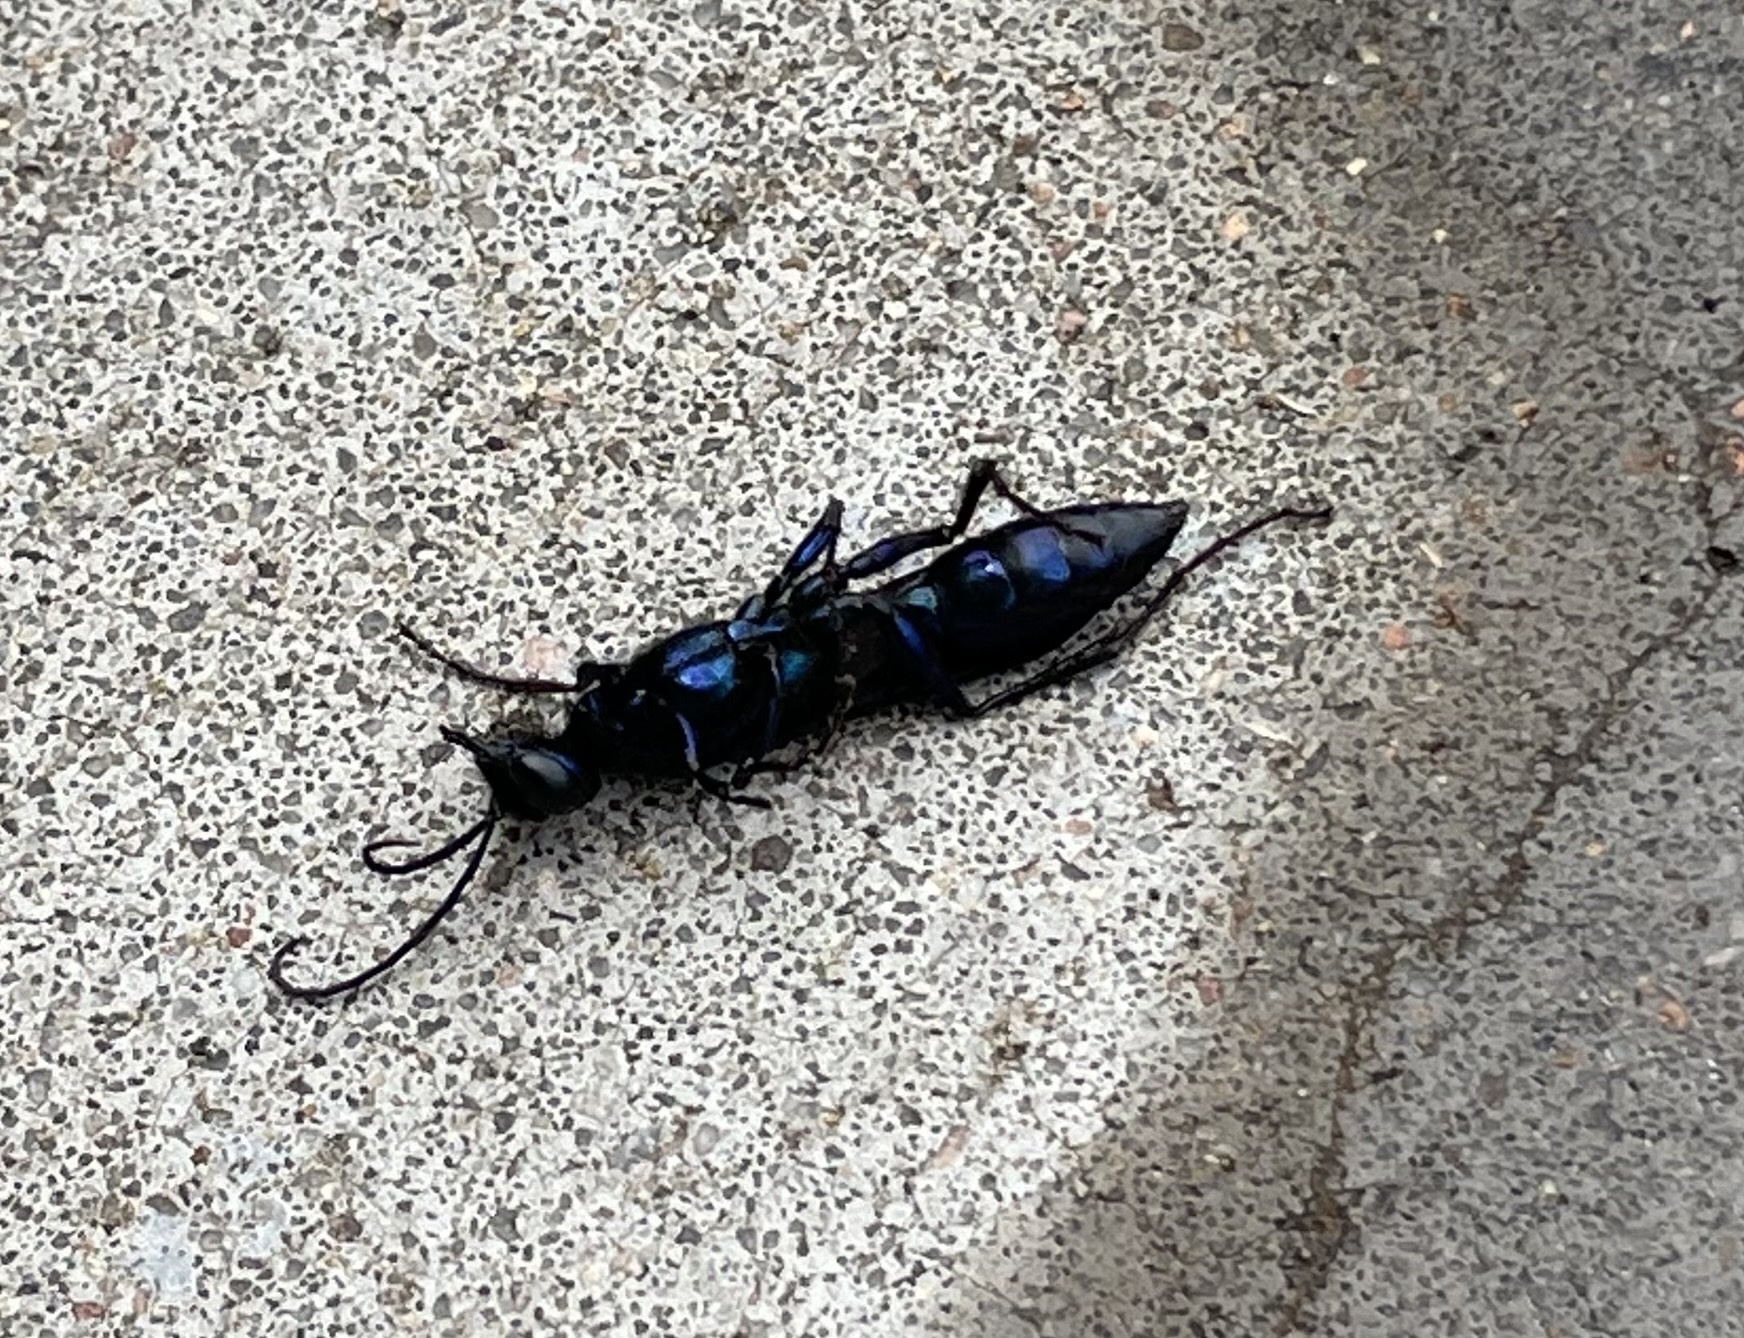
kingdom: Animalia
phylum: Arthropoda
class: Insecta
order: Hymenoptera
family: Sphecidae
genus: Chlorion
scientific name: Chlorion aerarium
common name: Steel-blue cricket hunter
